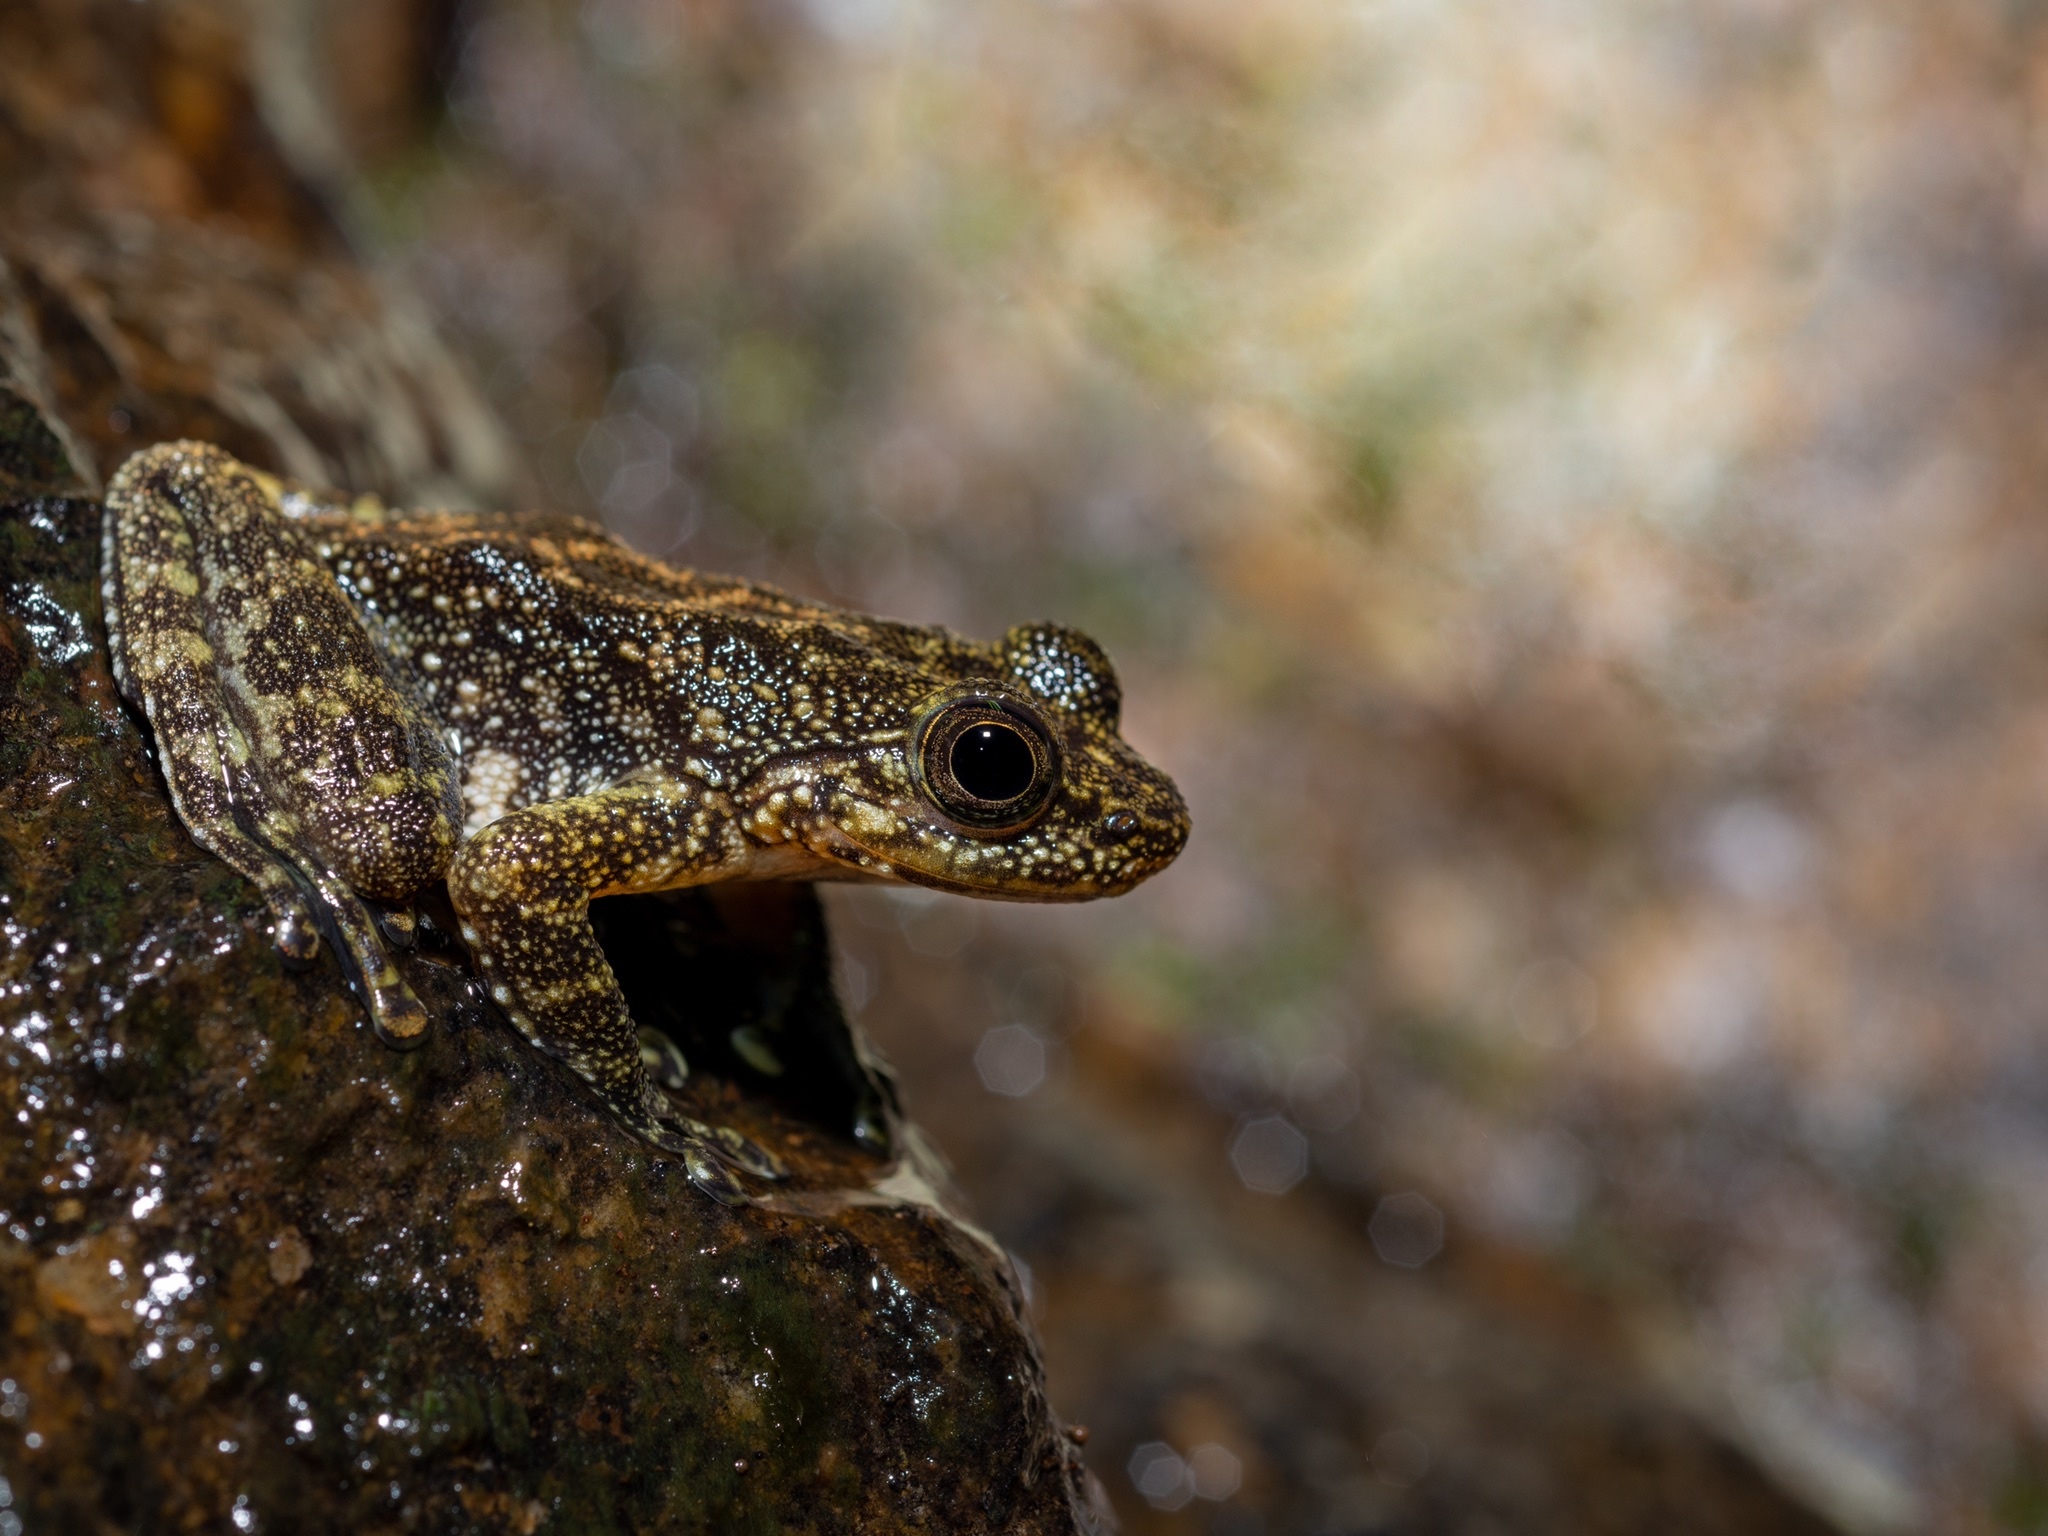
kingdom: Animalia
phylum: Chordata
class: Amphibia
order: Anura
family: Ranidae
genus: Amolops
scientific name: Amolops hongkongensis
